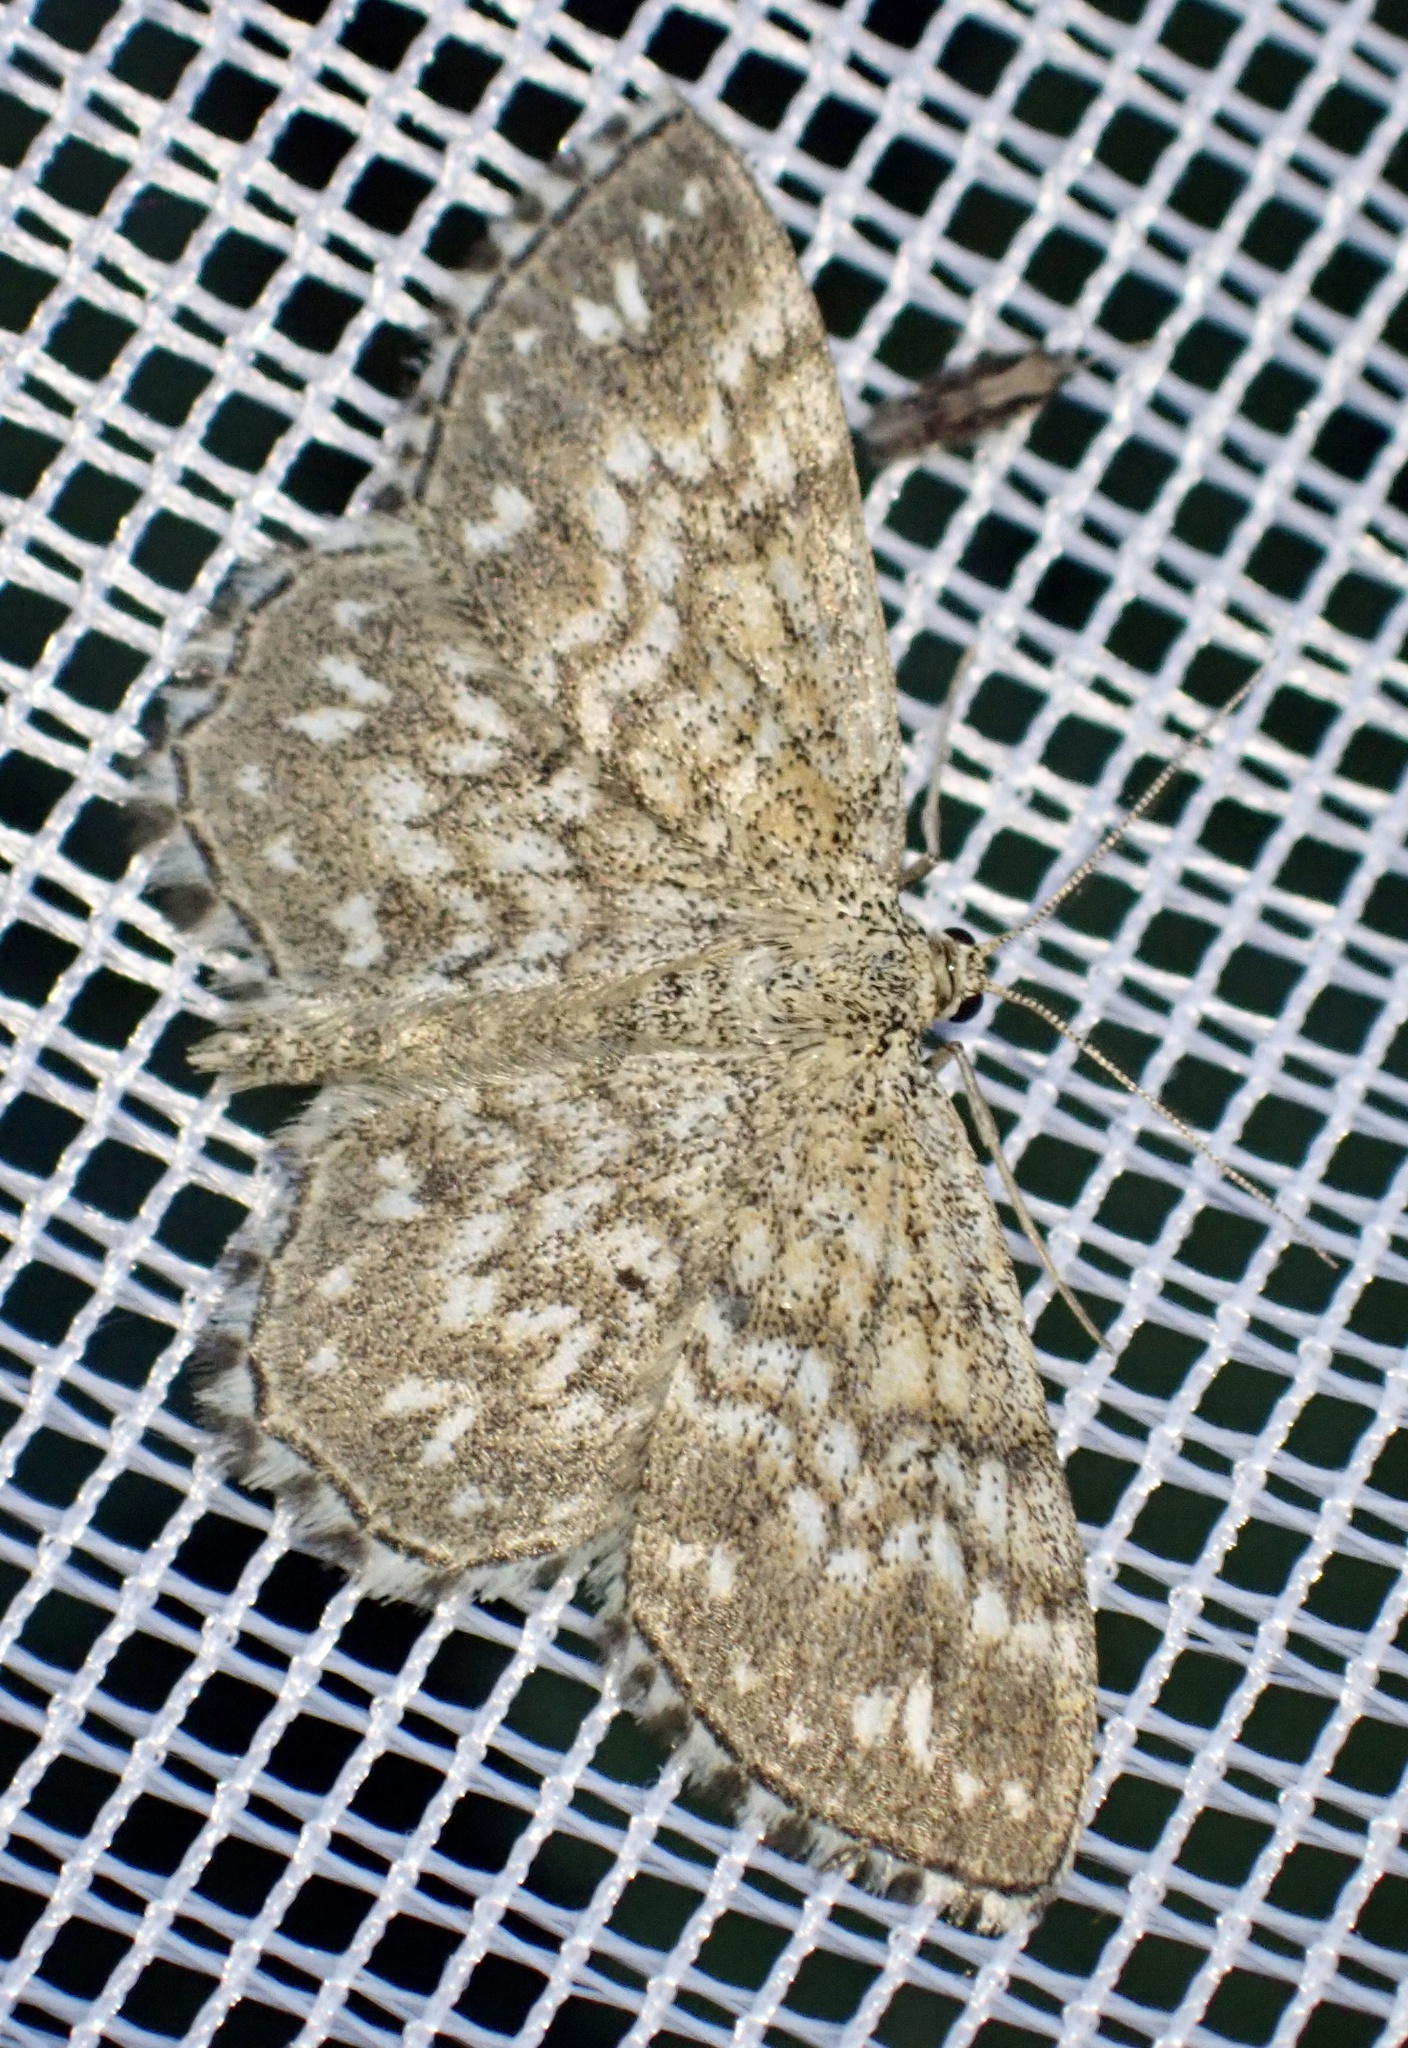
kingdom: Animalia
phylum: Arthropoda
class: Insecta
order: Lepidoptera
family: Geometridae
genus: Scopula
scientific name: Scopula tessellaria
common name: Dusky-brown wave
